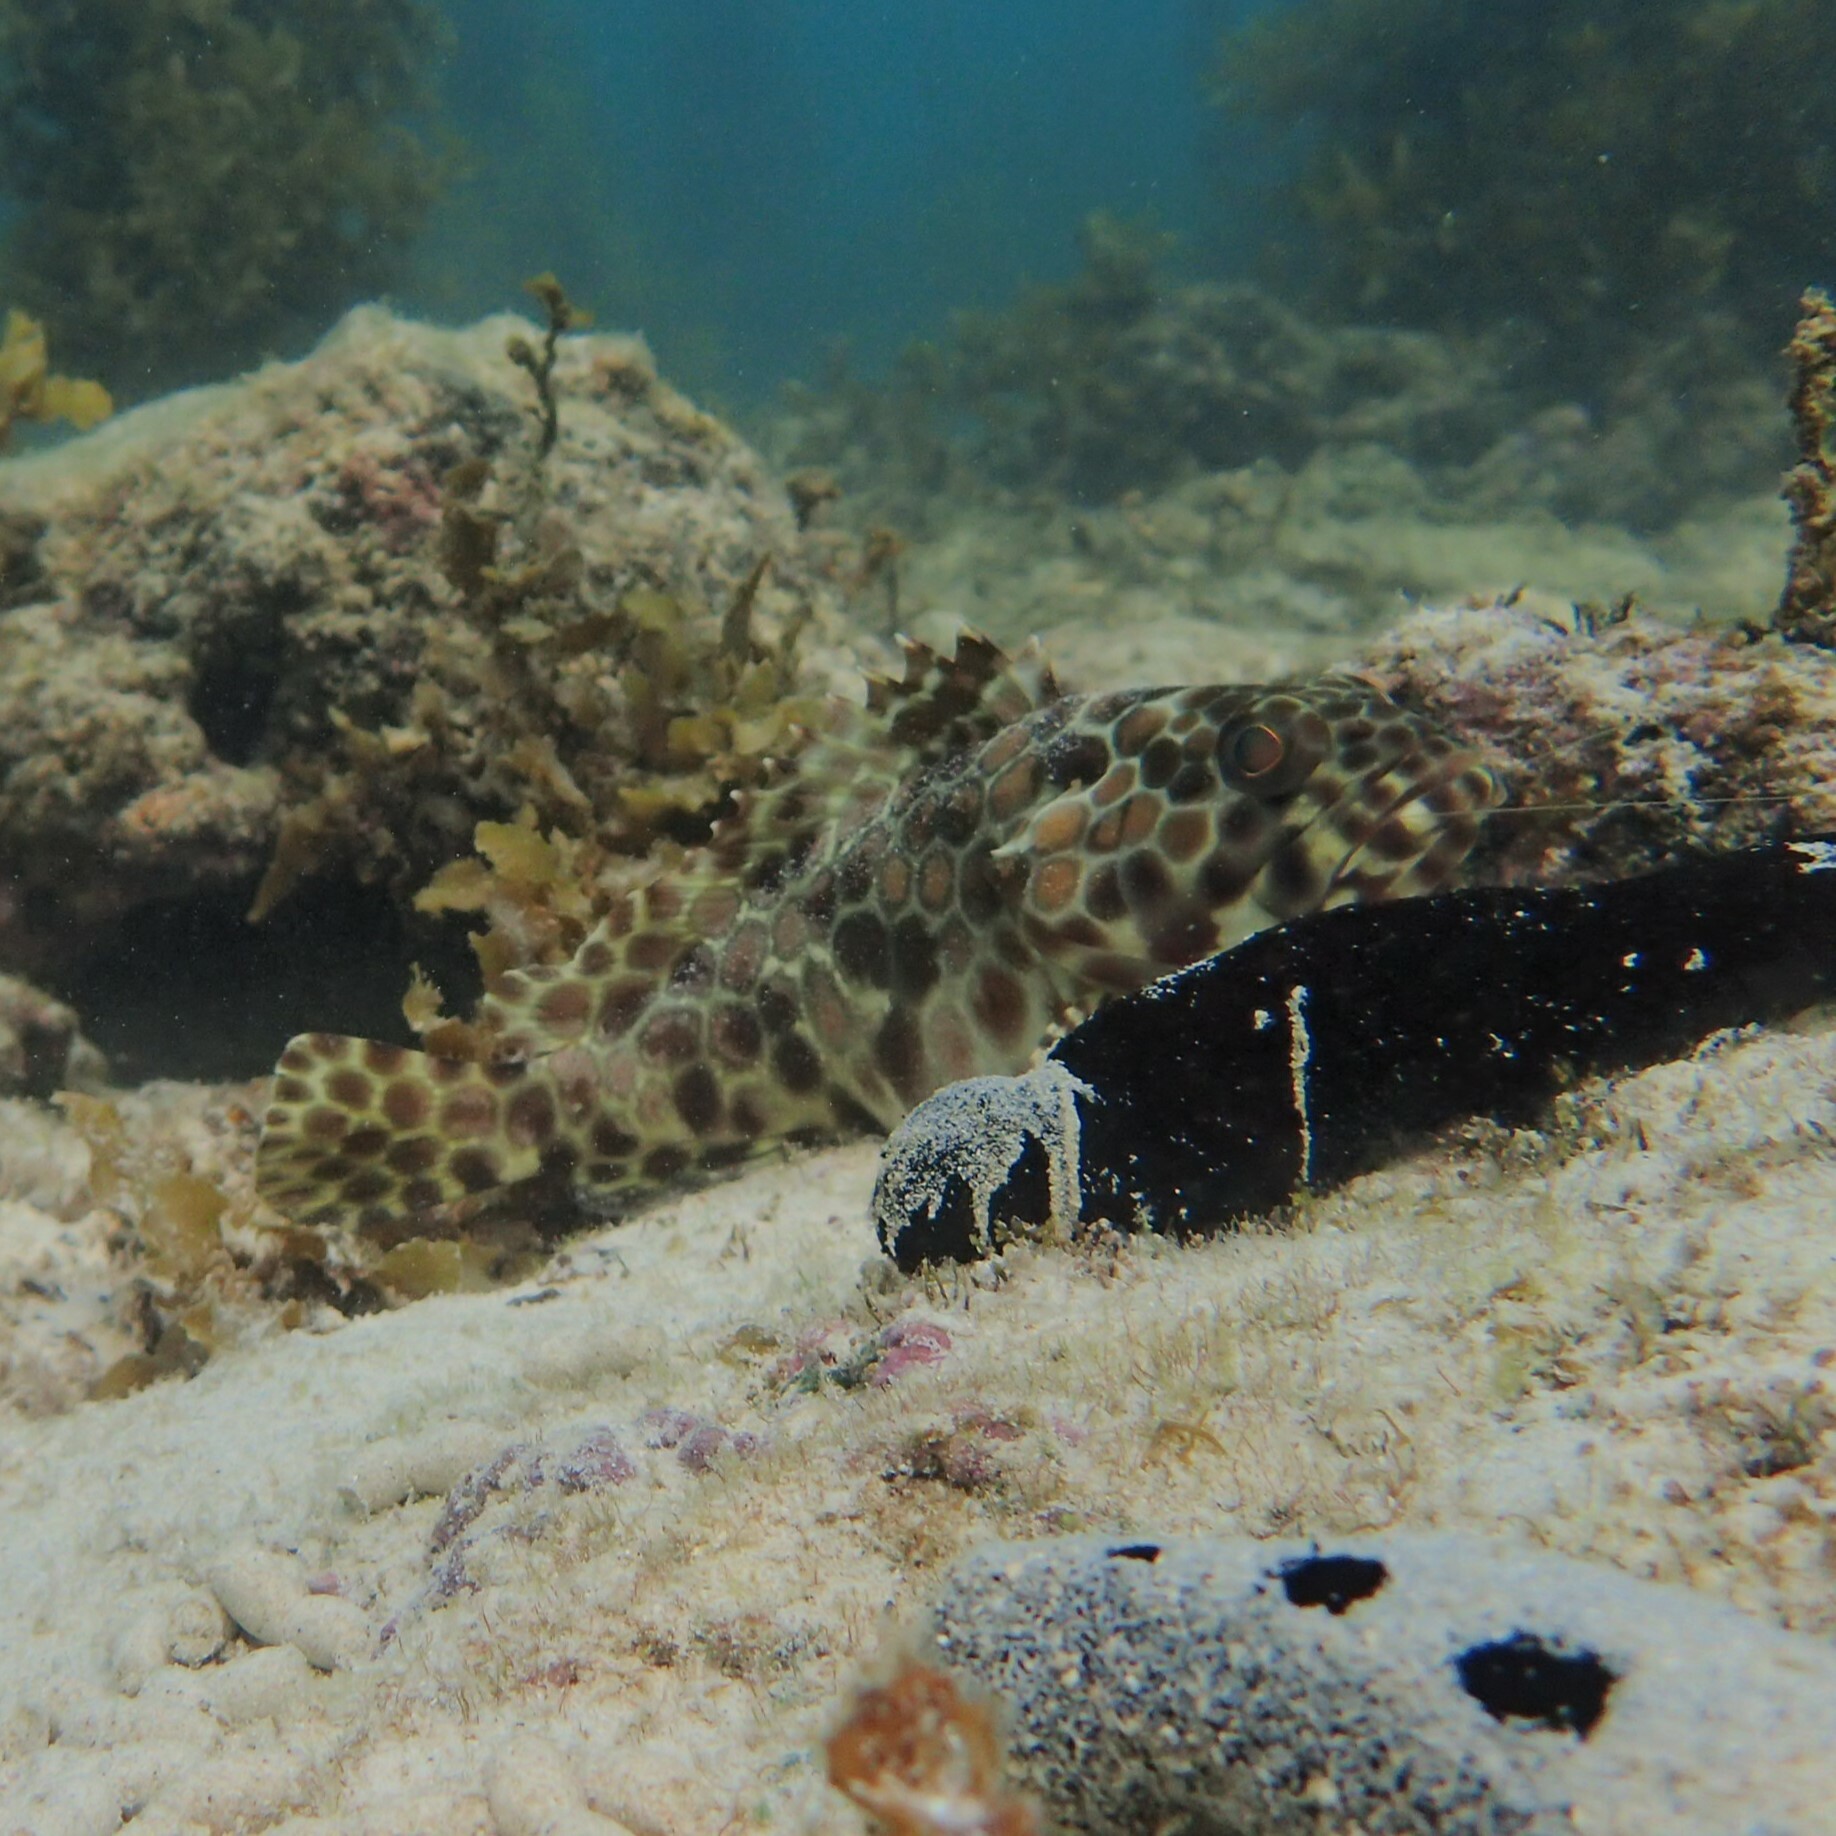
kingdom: Animalia
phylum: Chordata
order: Perciformes
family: Serranidae
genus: Epinephelus
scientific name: Epinephelus quoyanus
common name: Longfin grouper
